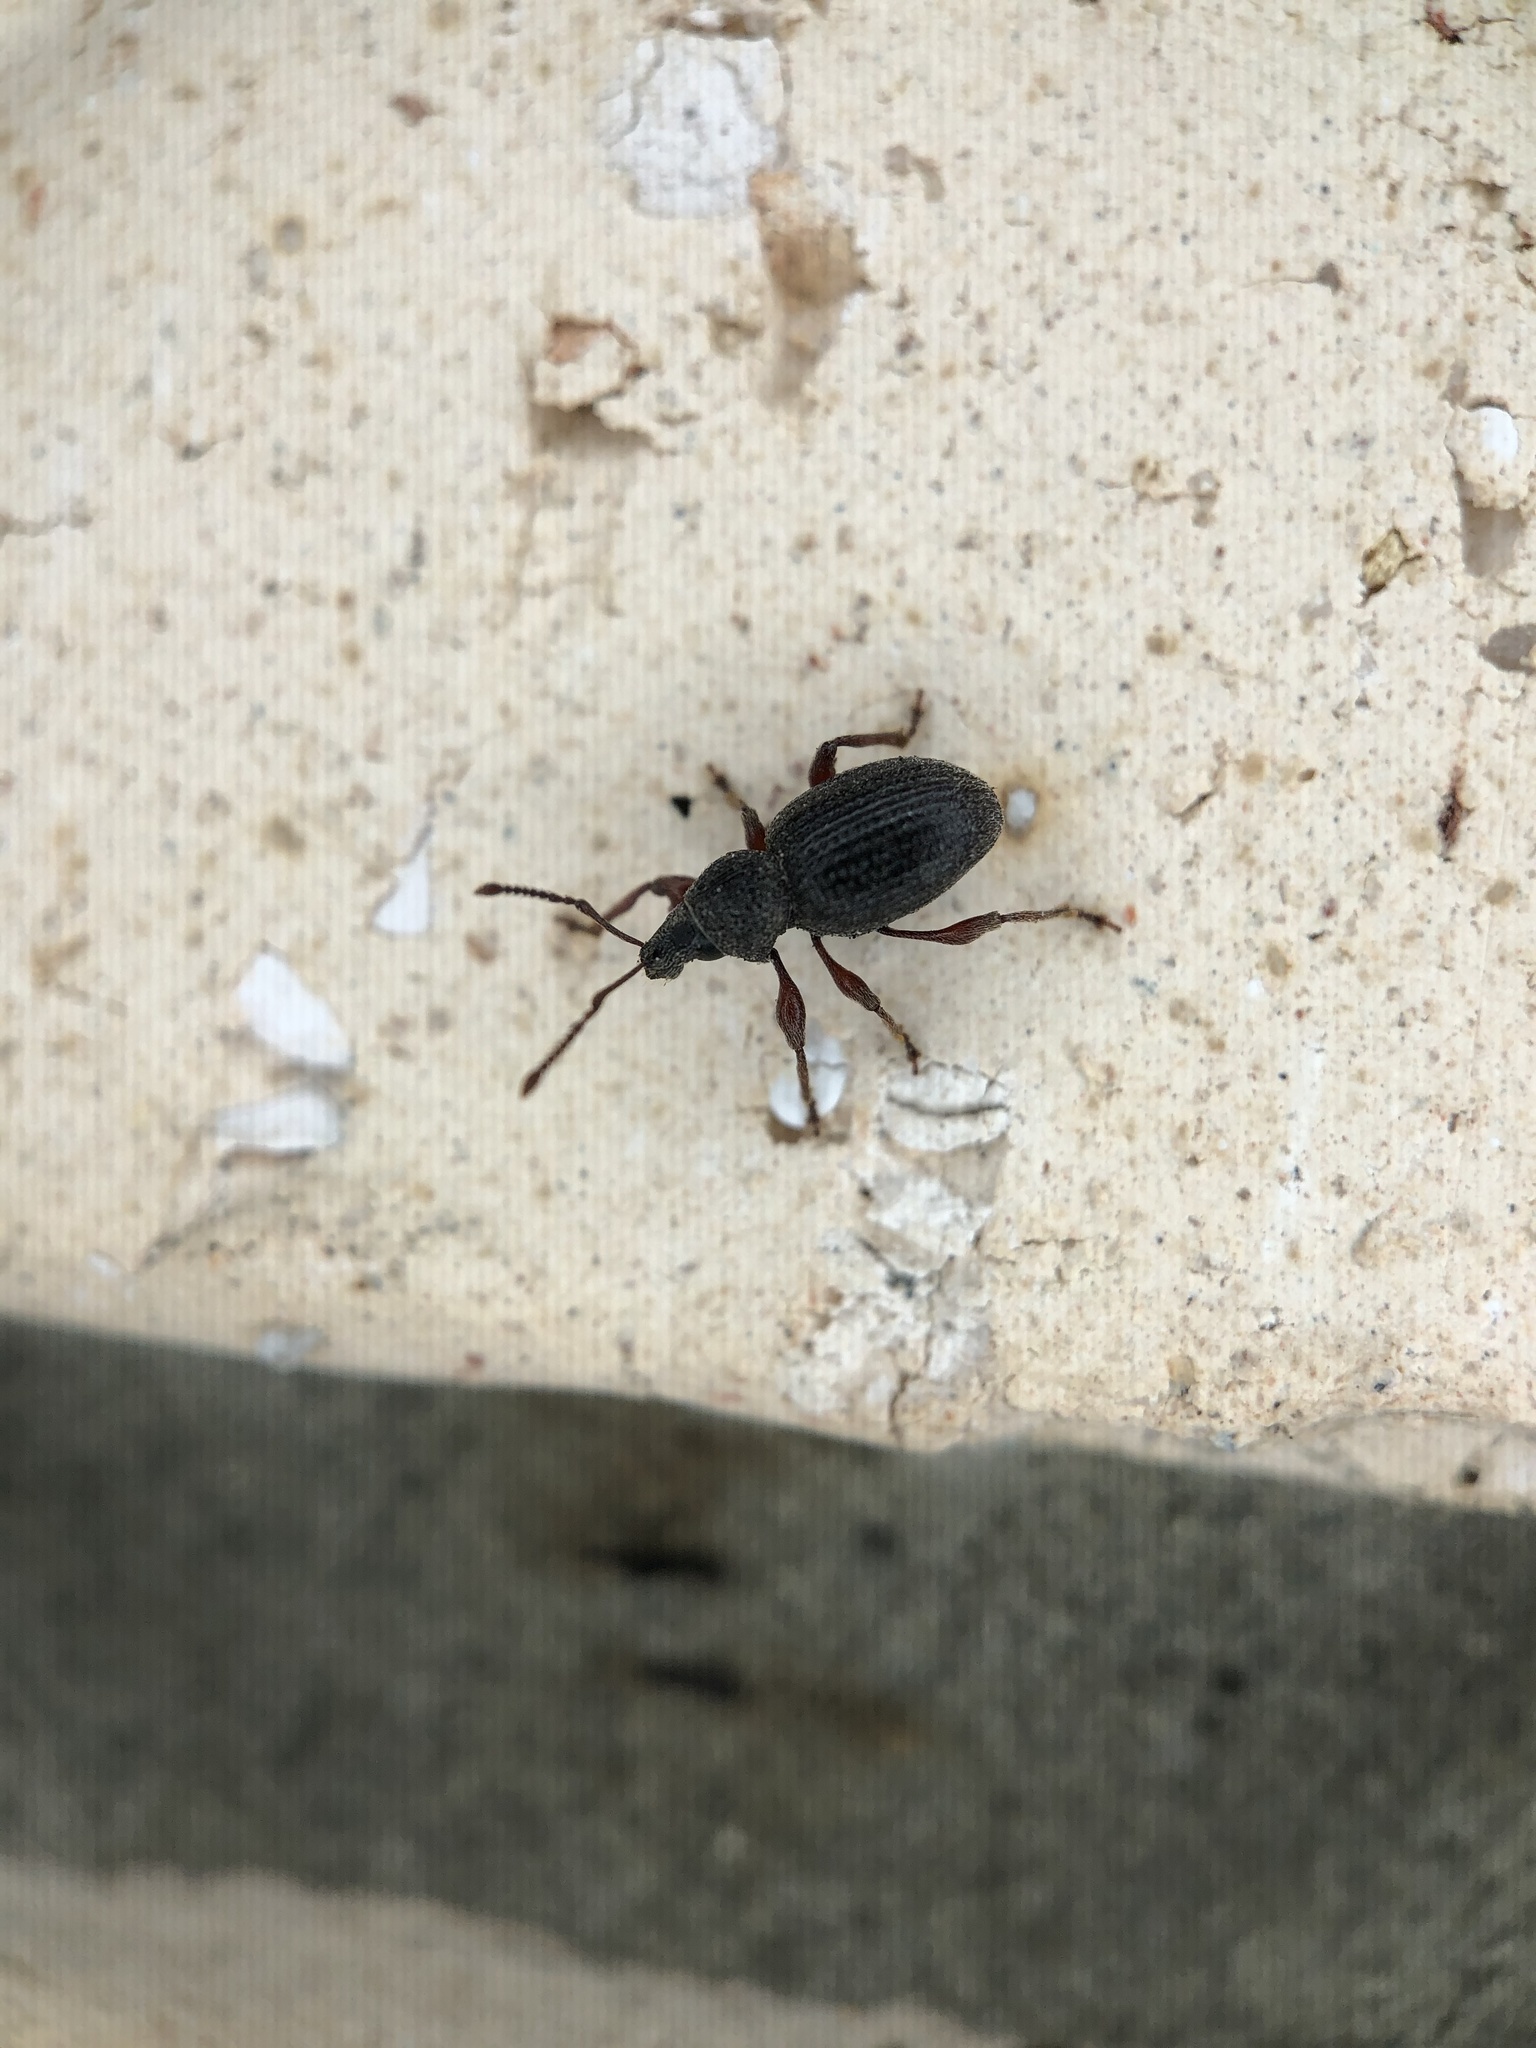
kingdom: Animalia
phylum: Arthropoda
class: Insecta
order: Coleoptera
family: Curculionidae
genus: Otiorhynchus
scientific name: Otiorhynchus ovatus
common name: Strawberry root weevil
